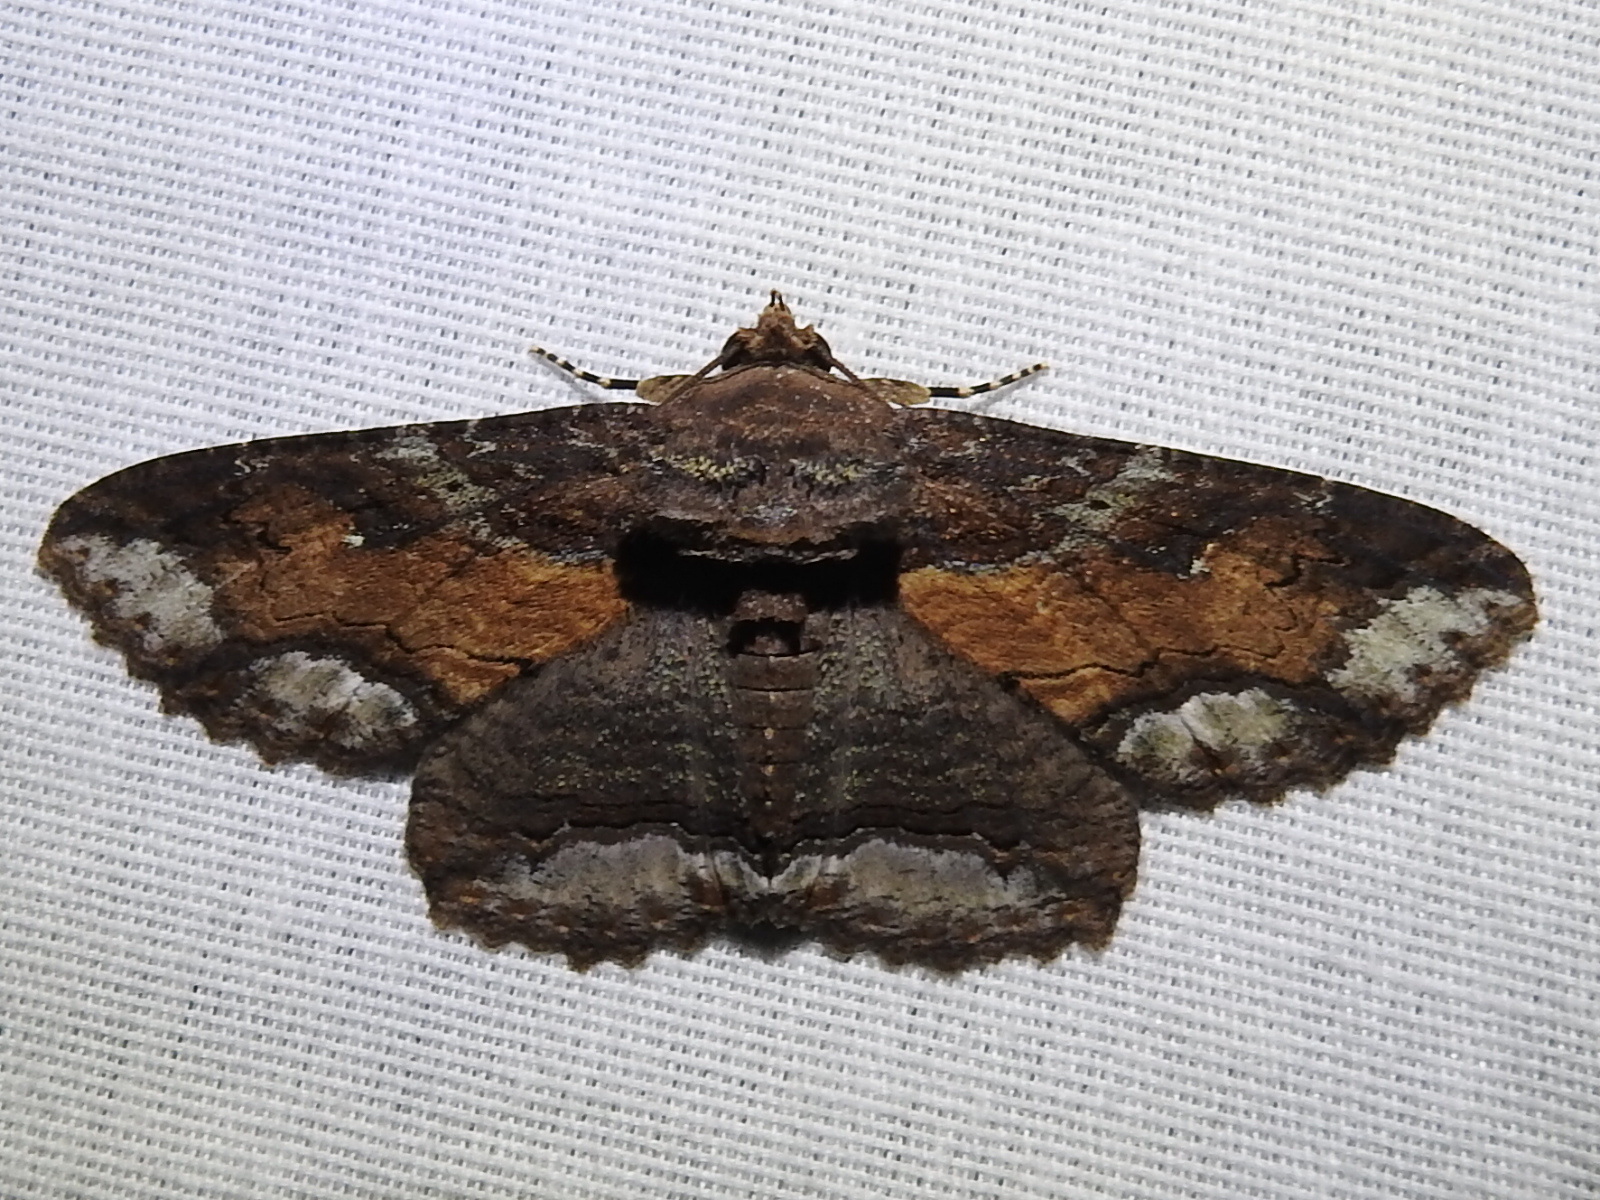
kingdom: Animalia
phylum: Arthropoda
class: Insecta
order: Lepidoptera
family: Erebidae
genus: Zale
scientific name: Zale lunata
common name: Lunate zale moth
